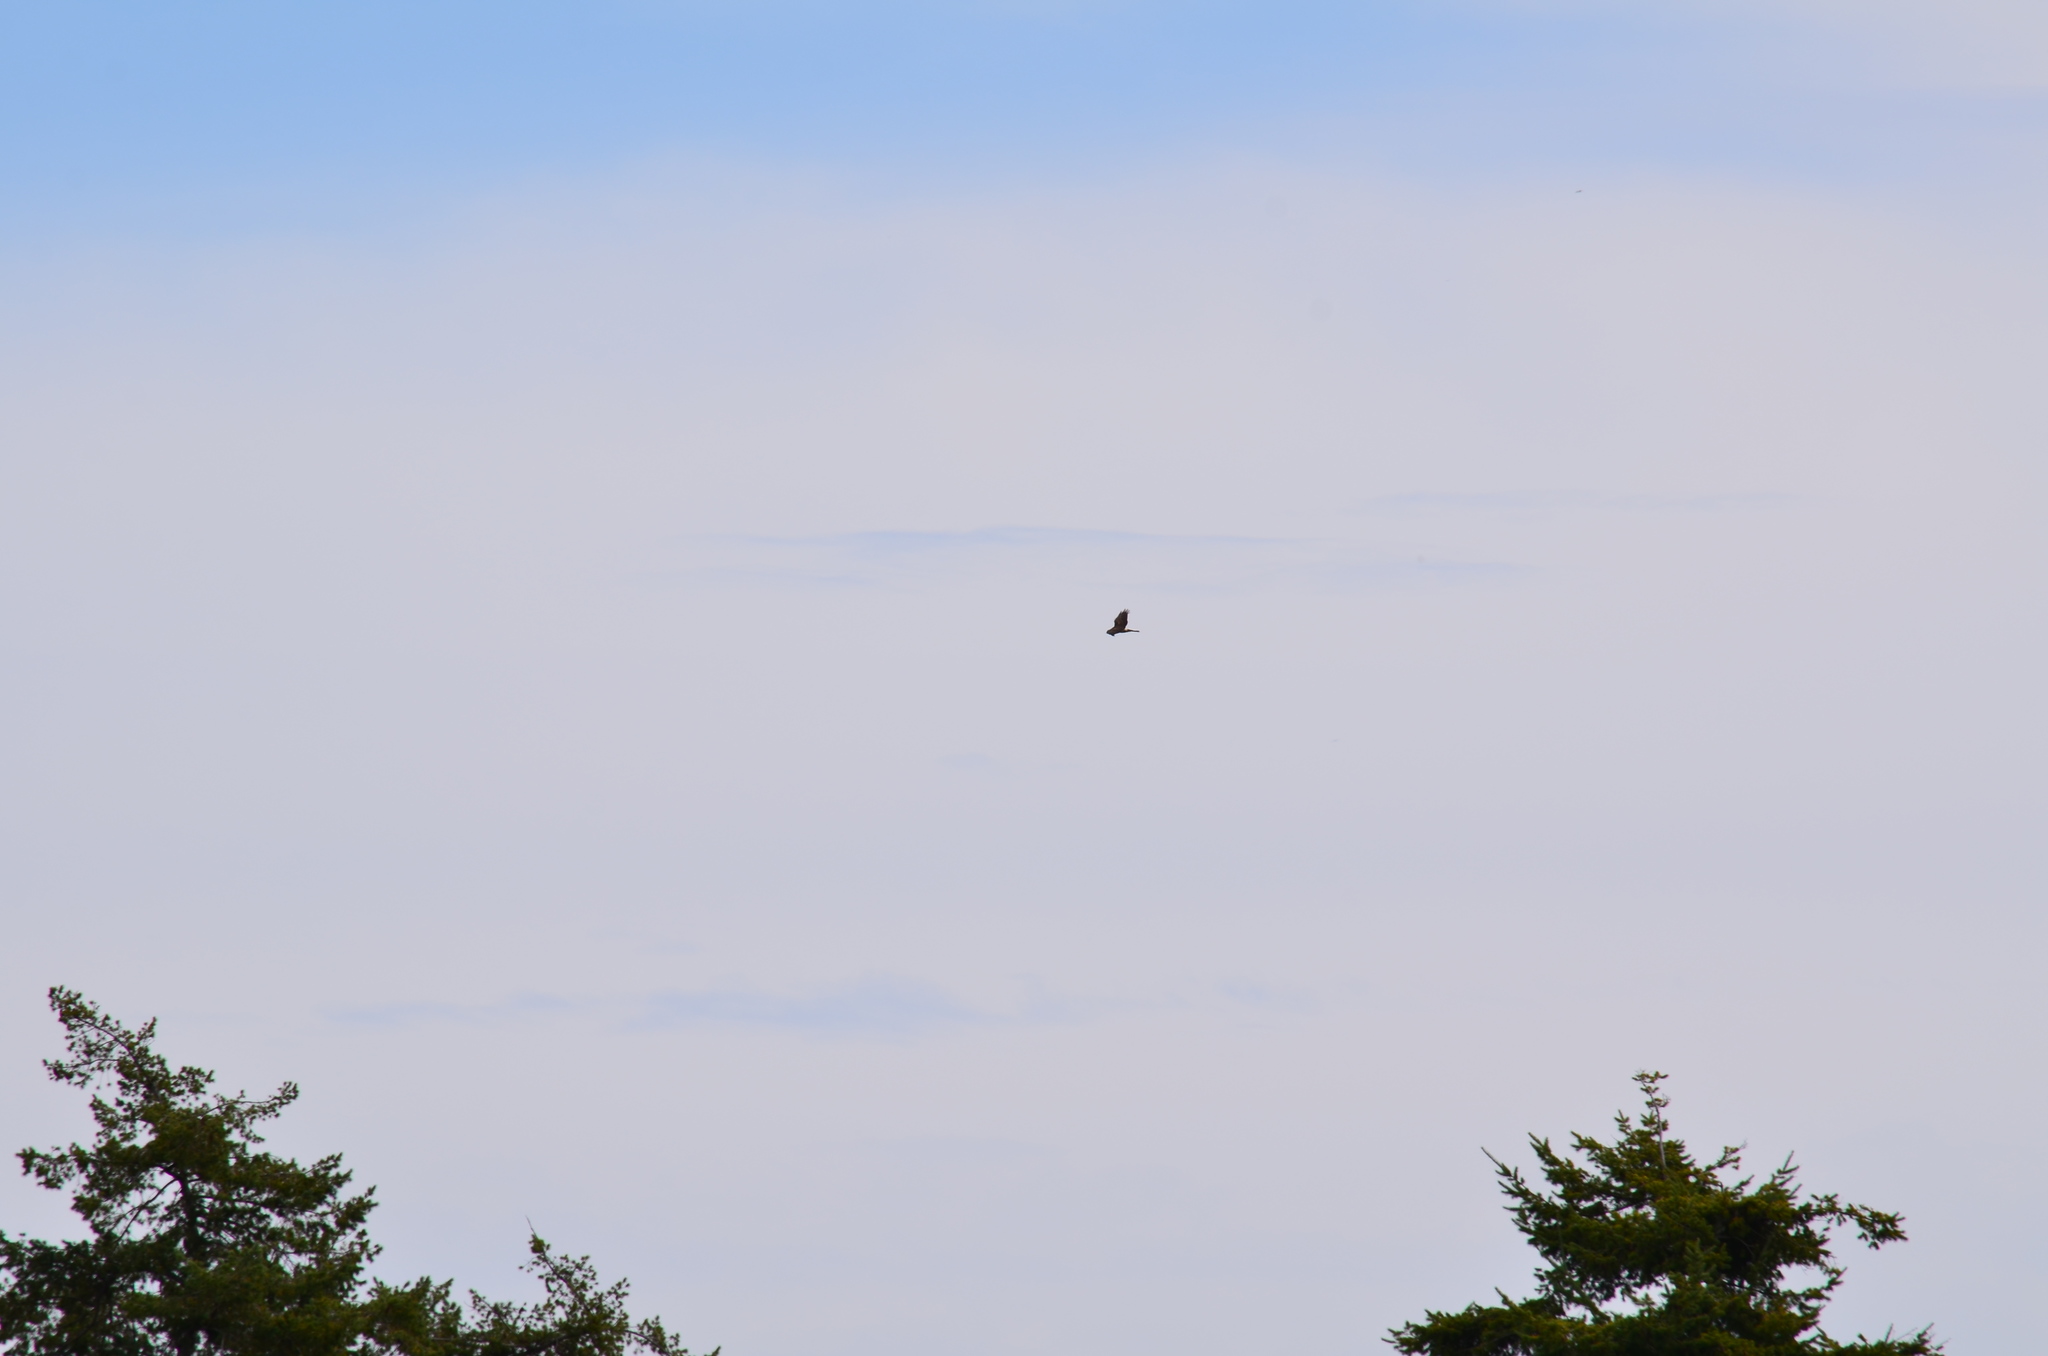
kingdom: Animalia
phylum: Chordata
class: Aves
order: Accipitriformes
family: Accipitridae
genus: Circus
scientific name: Circus cyaneus
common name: Hen harrier
